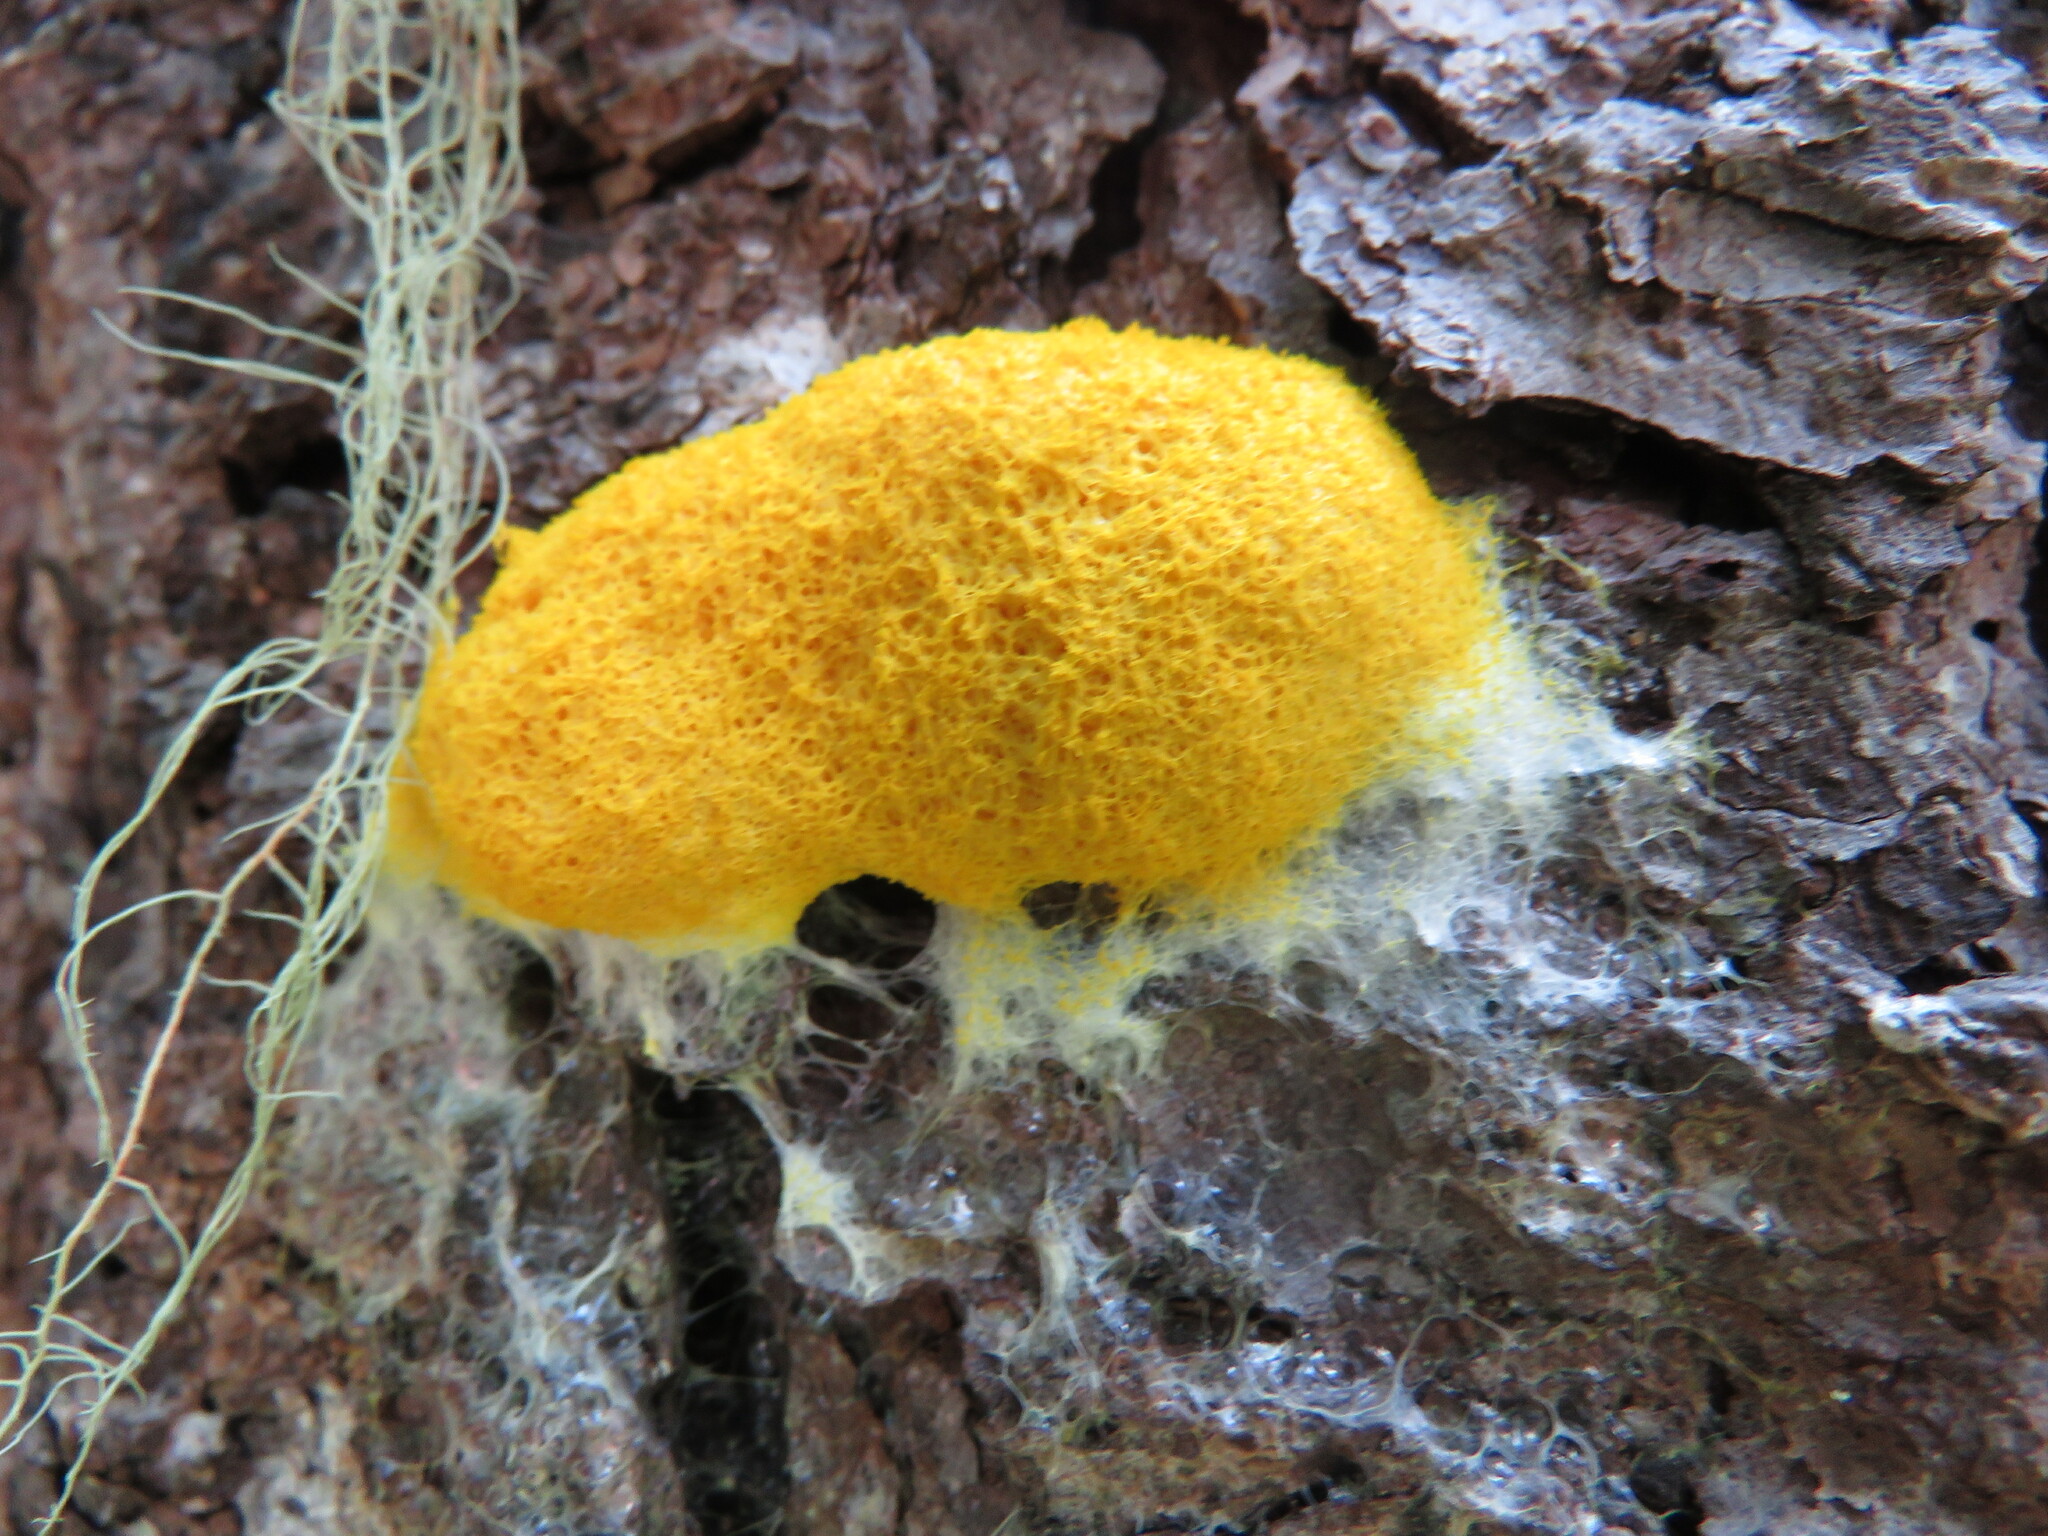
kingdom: Protozoa
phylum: Mycetozoa
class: Myxomycetes
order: Physarales
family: Physaraceae
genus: Fuligo
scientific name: Fuligo septica
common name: Dog vomit slime mold
